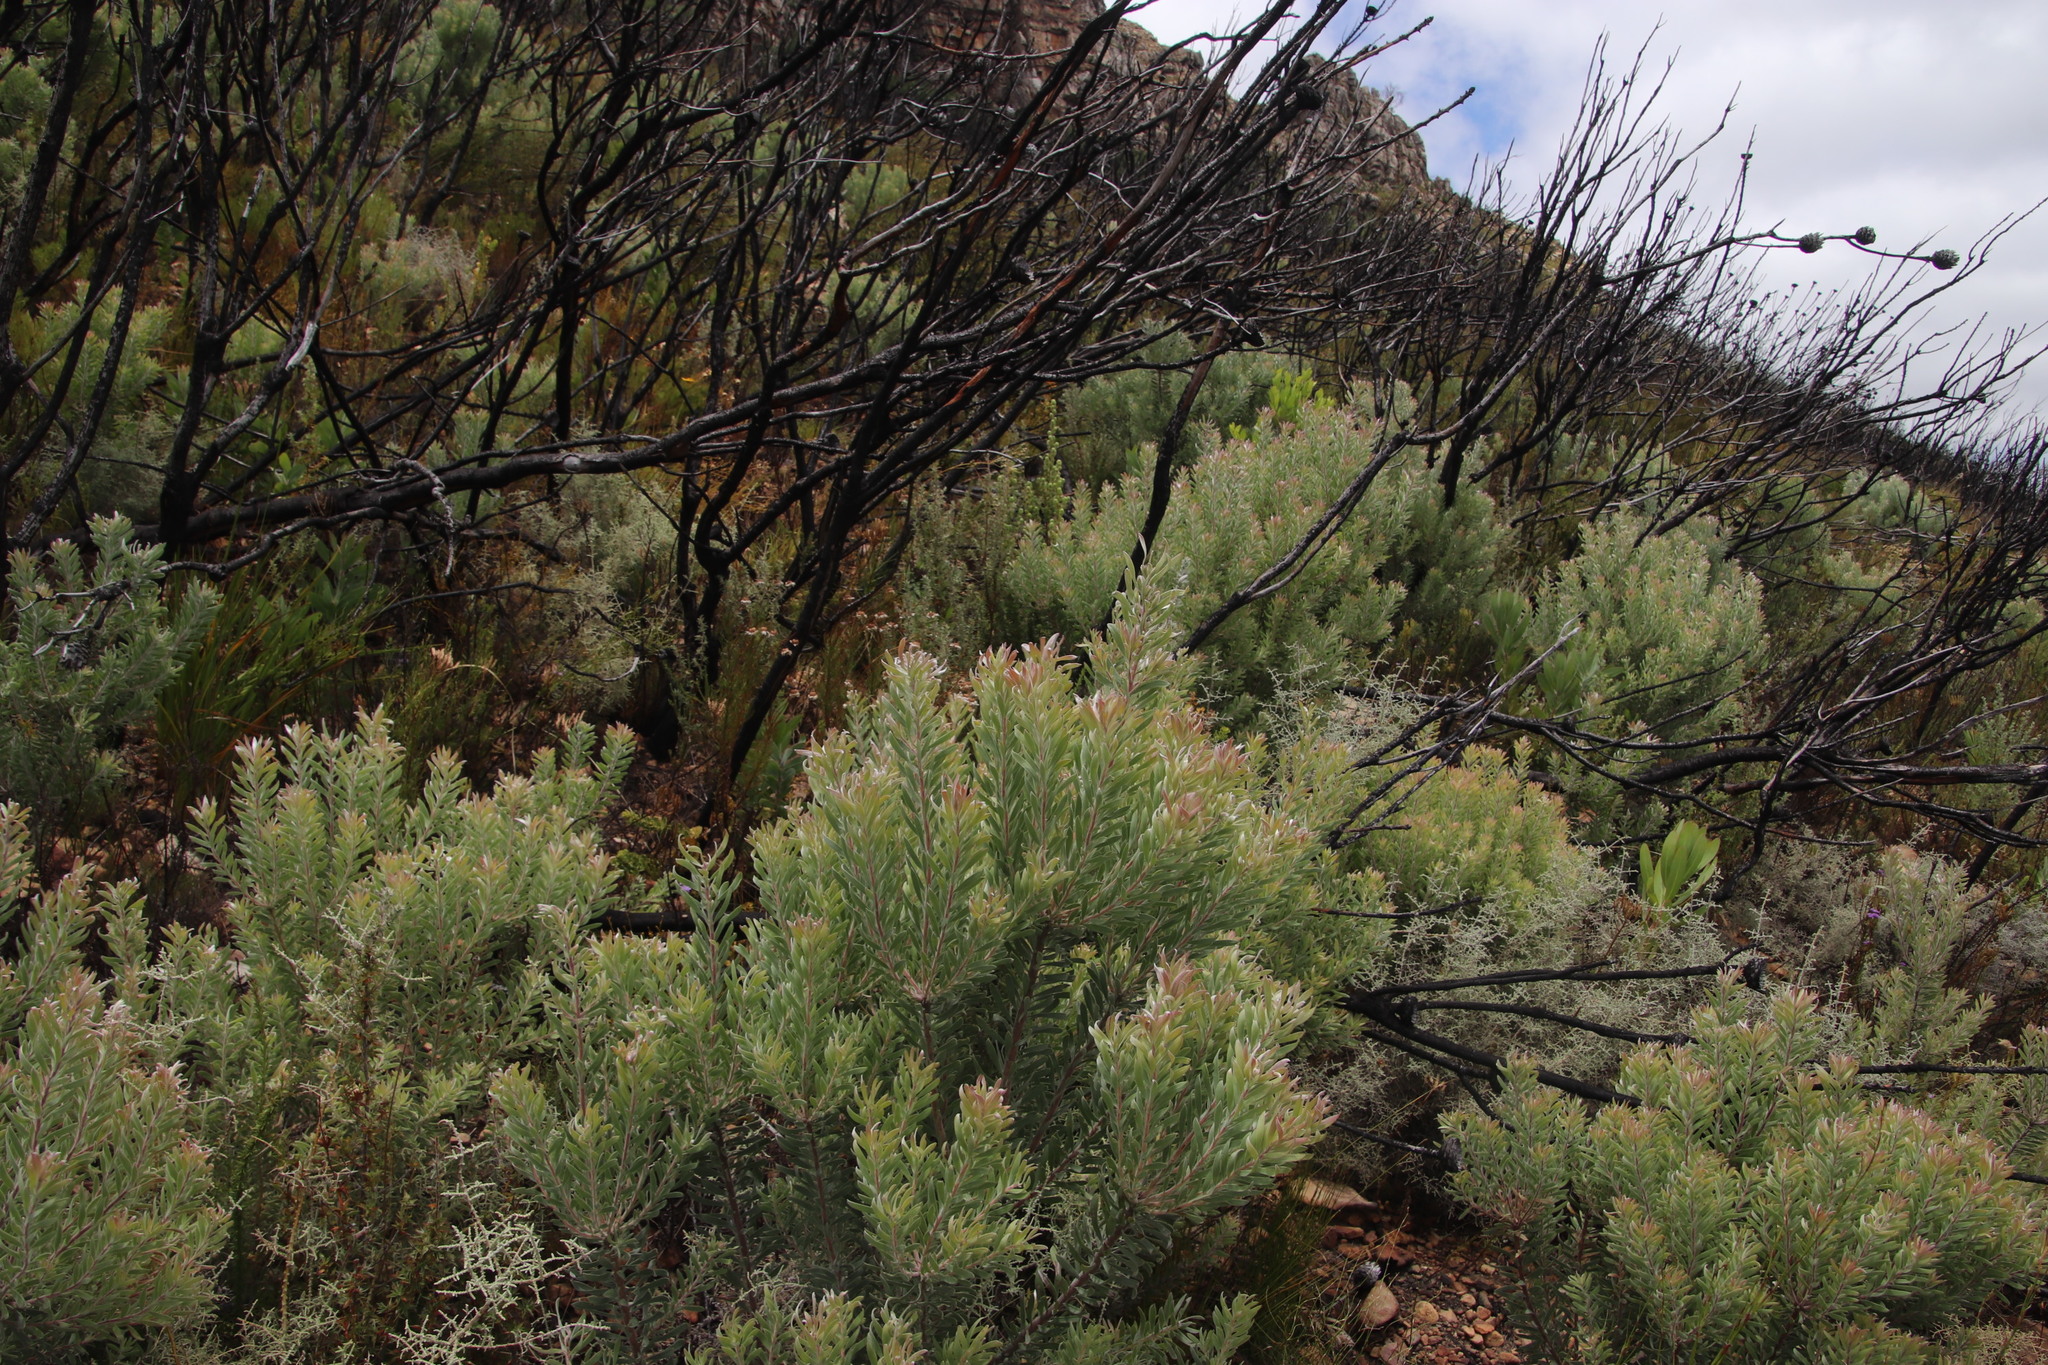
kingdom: Plantae
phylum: Tracheophyta
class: Magnoliopsida
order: Proteales
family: Proteaceae
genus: Leucadendron
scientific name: Leucadendron rubrum
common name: Spinning top
